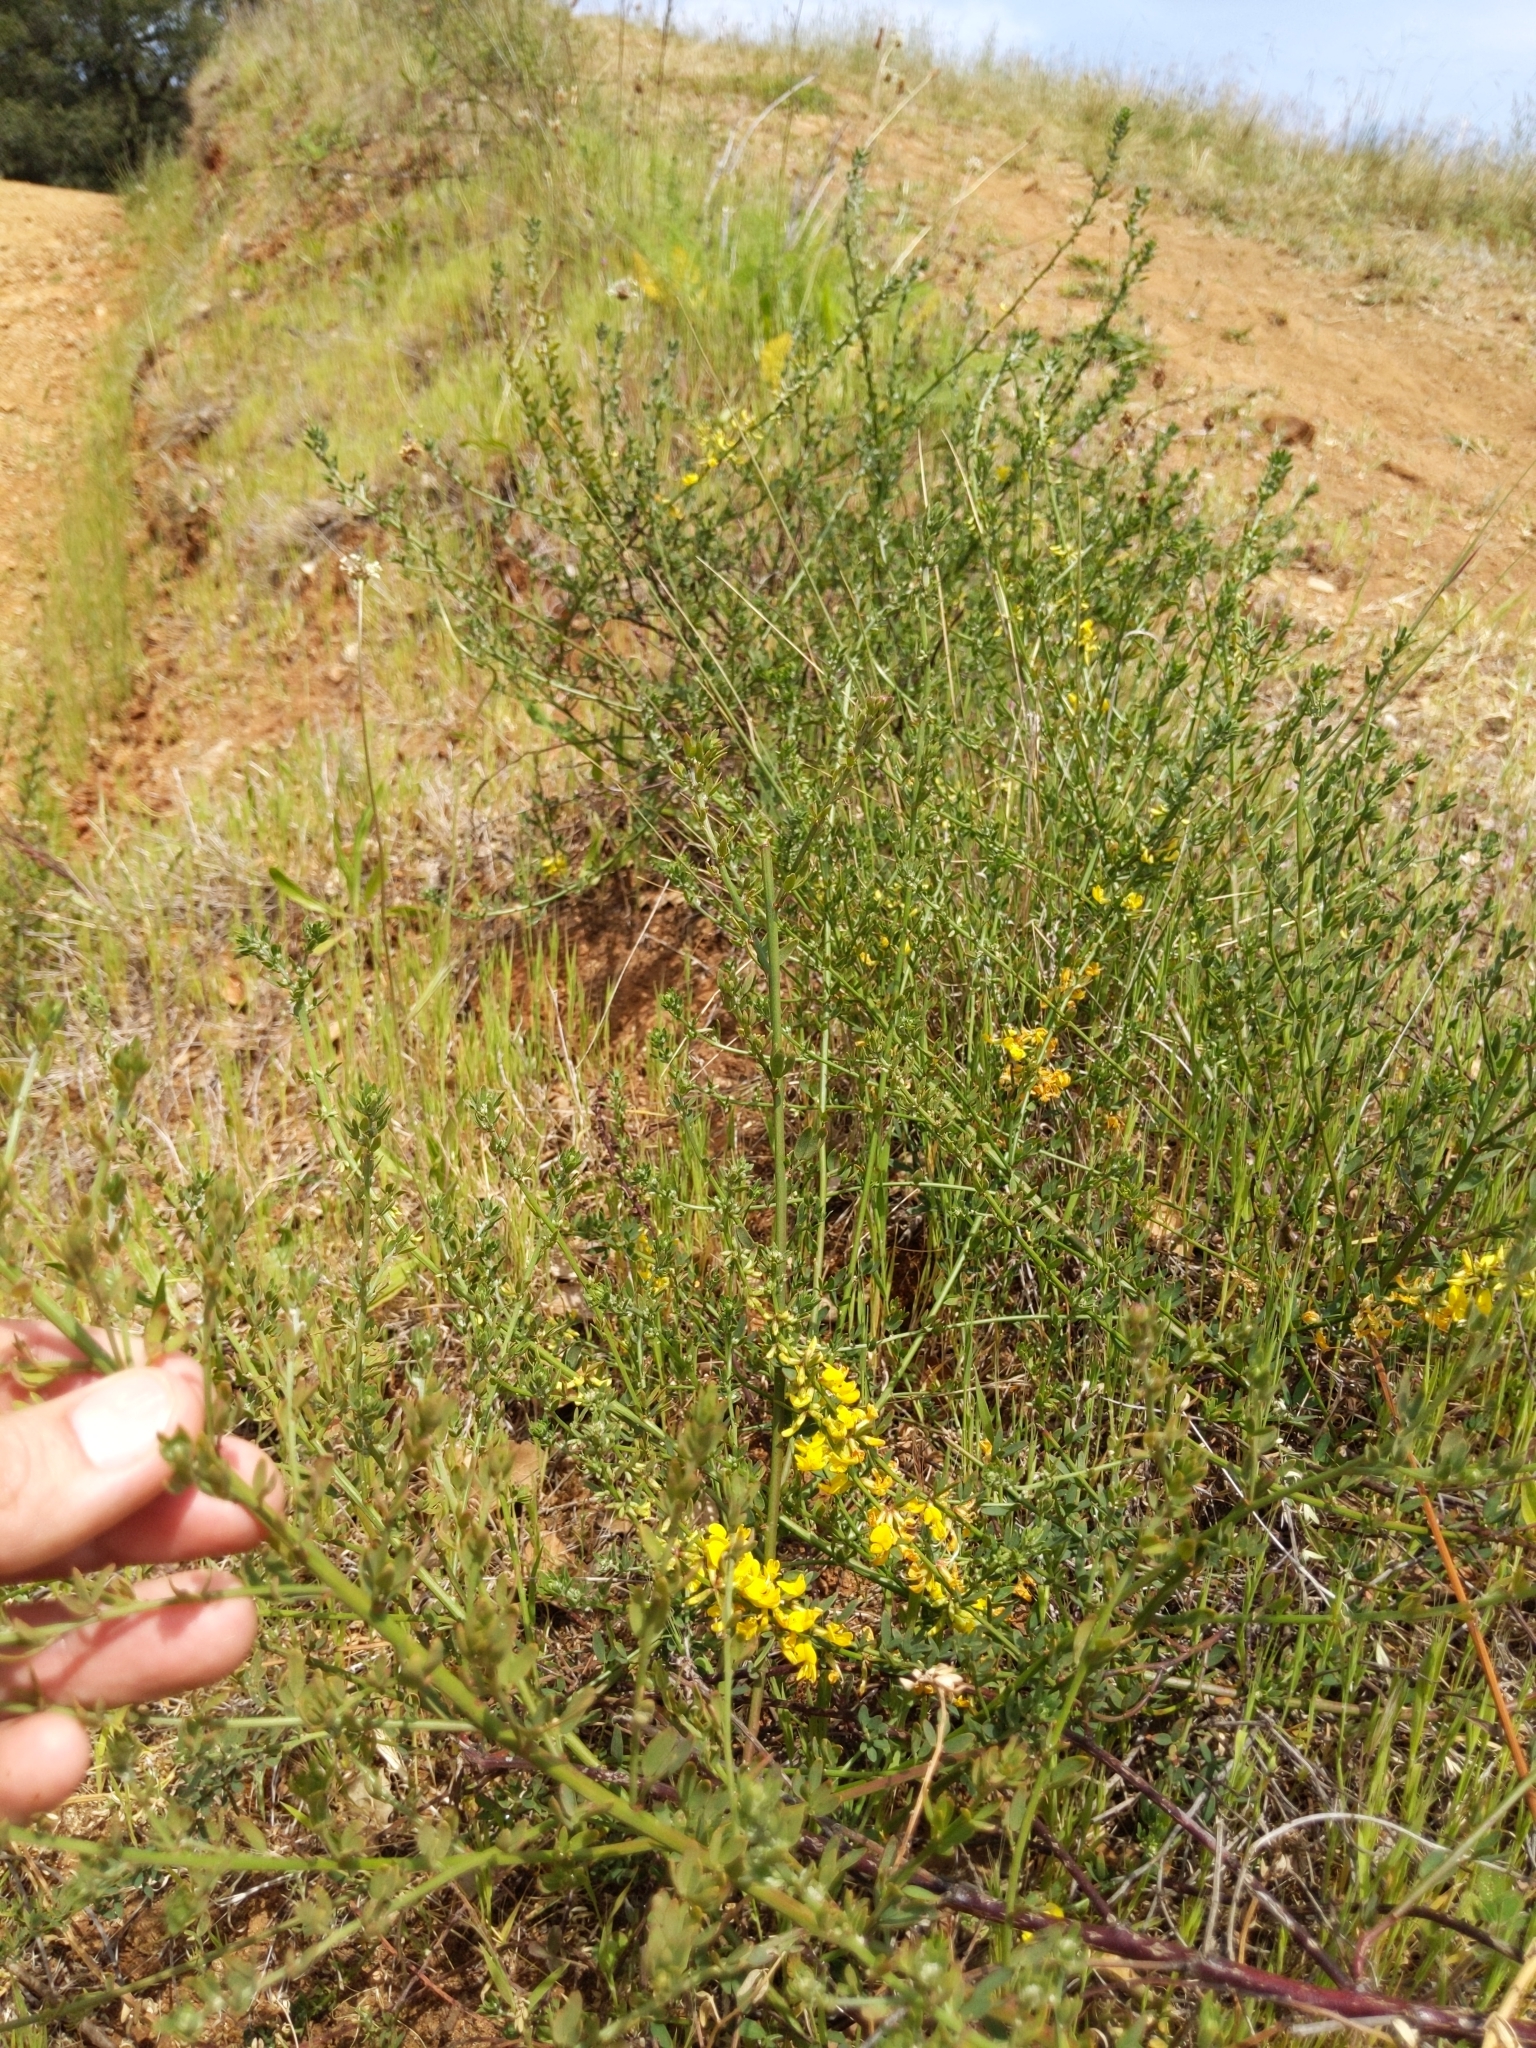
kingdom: Plantae
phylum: Tracheophyta
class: Magnoliopsida
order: Fabales
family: Fabaceae
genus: Acmispon
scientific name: Acmispon glaber
